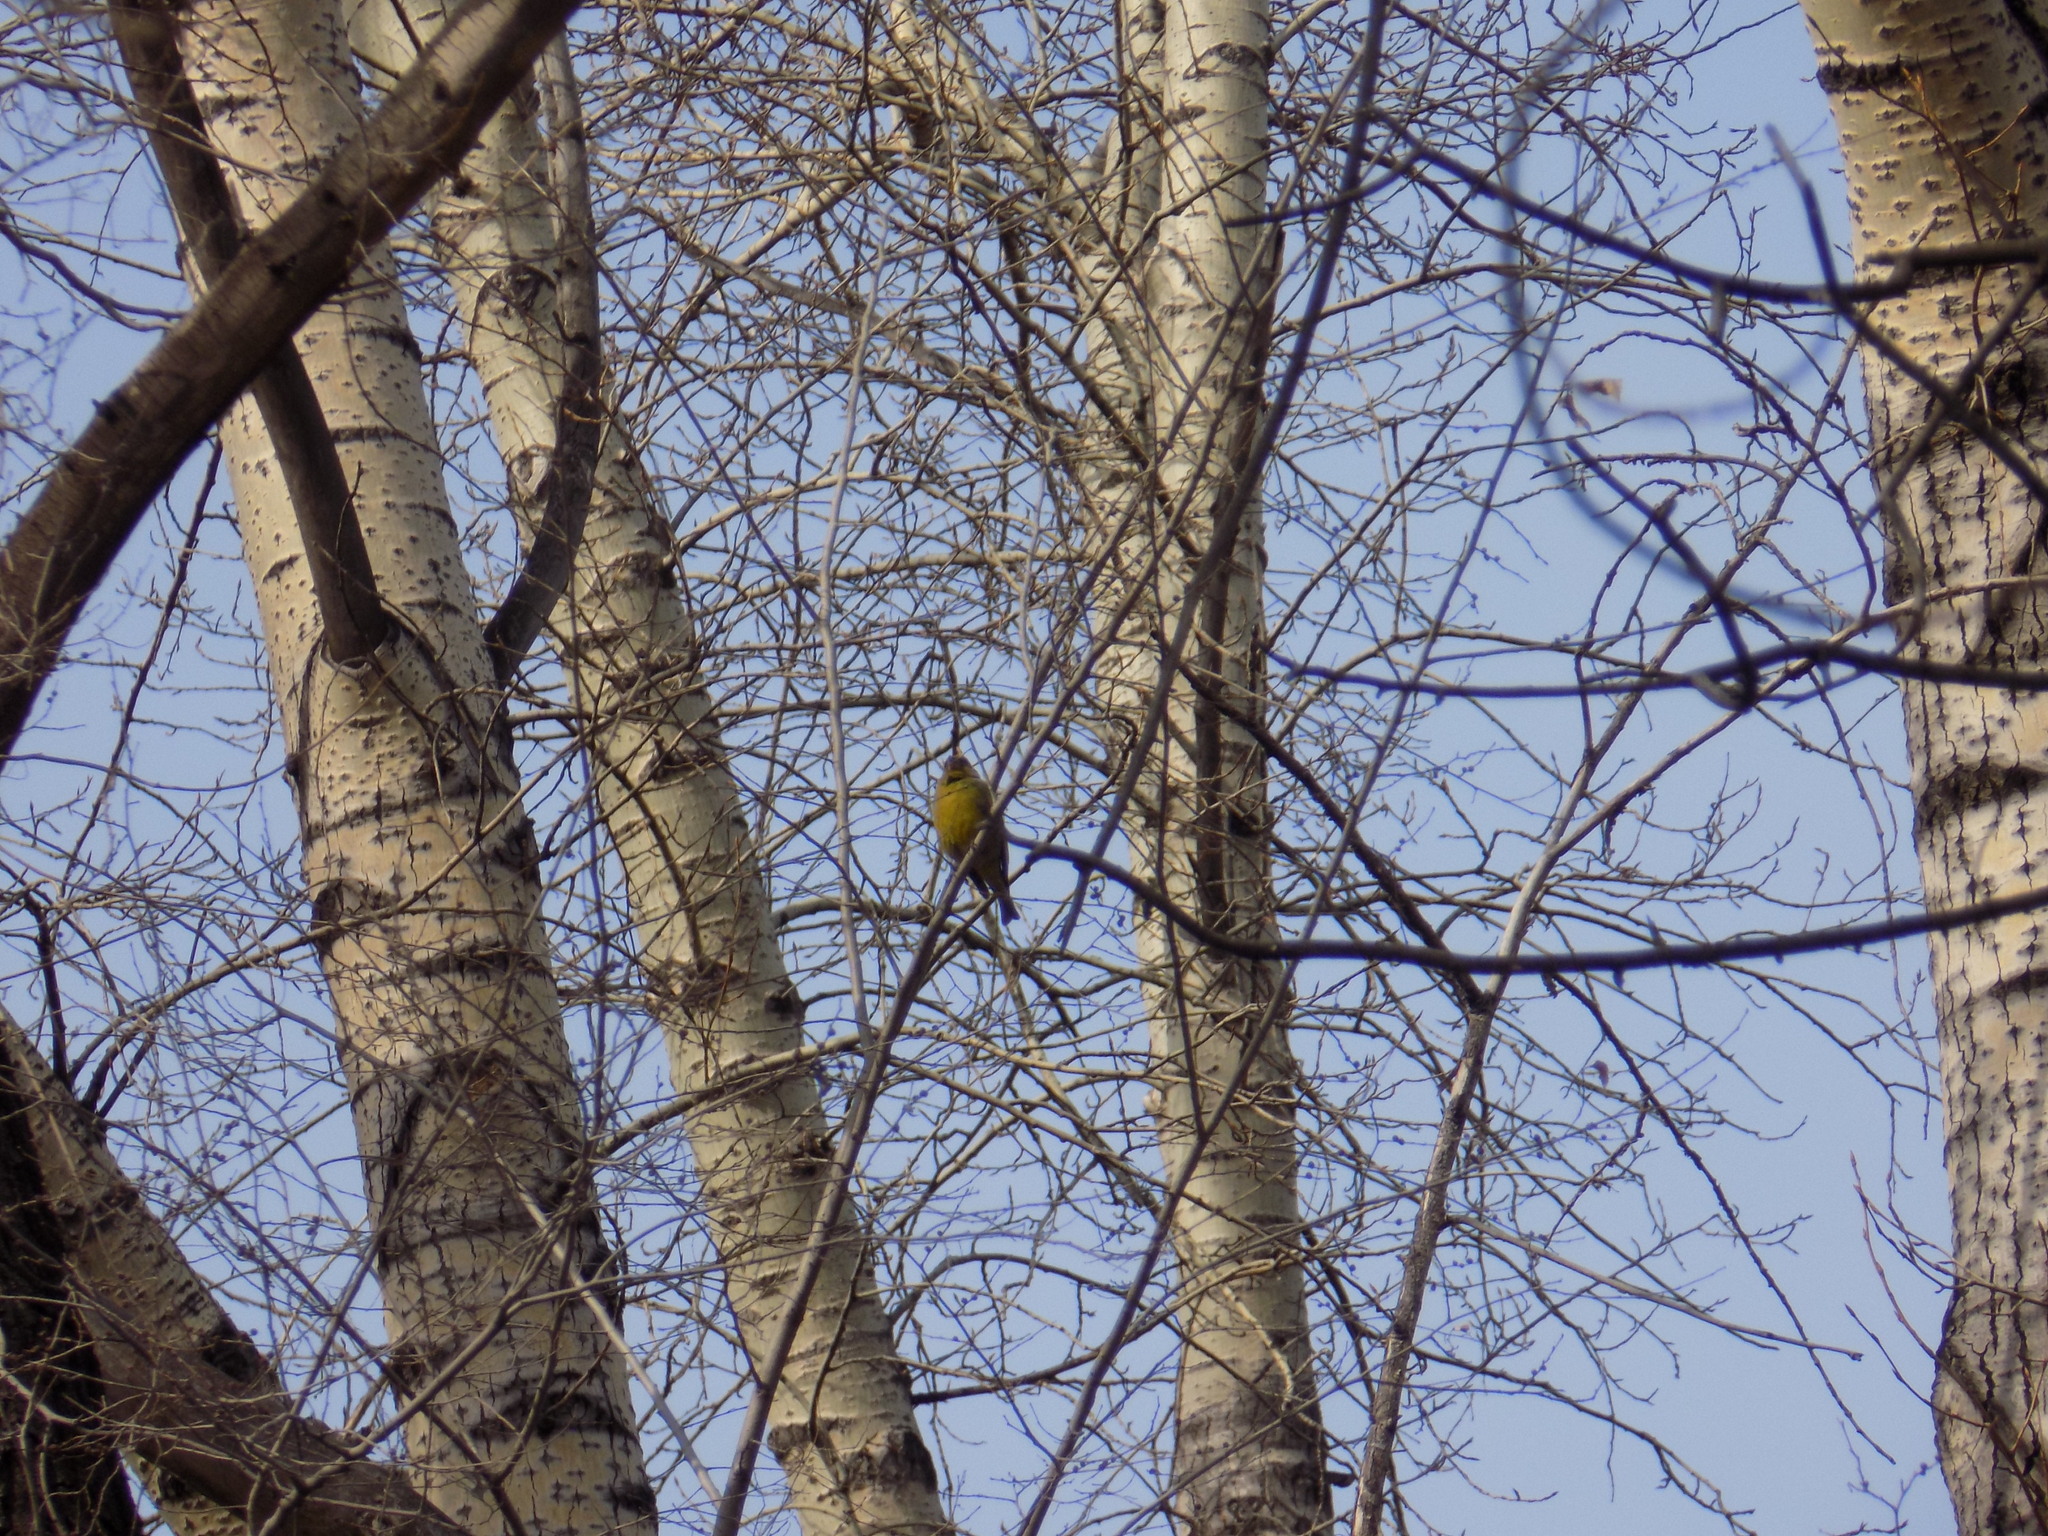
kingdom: Plantae
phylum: Tracheophyta
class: Liliopsida
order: Poales
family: Poaceae
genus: Chloris
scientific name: Chloris chloris
